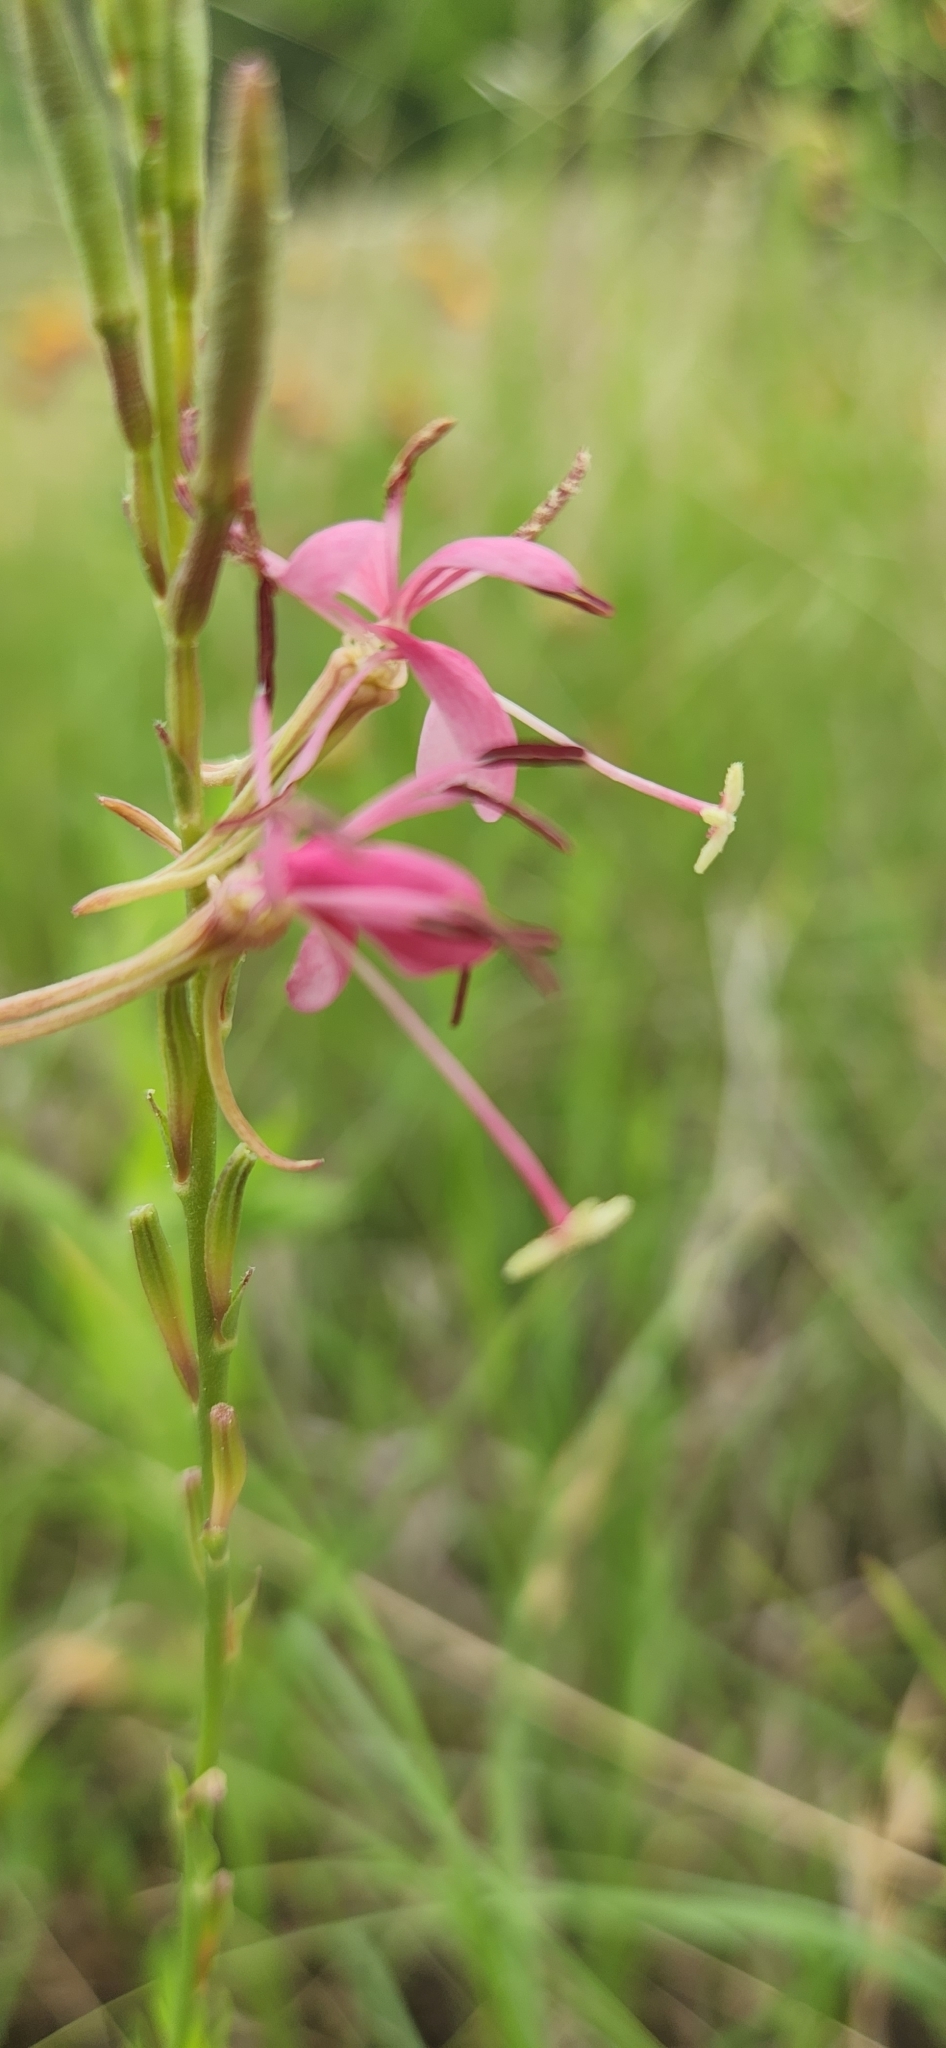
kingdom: Plantae
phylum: Tracheophyta
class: Magnoliopsida
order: Myrtales
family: Onagraceae
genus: Oenothera
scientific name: Oenothera suffrutescens
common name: Scarlet beeblossom
